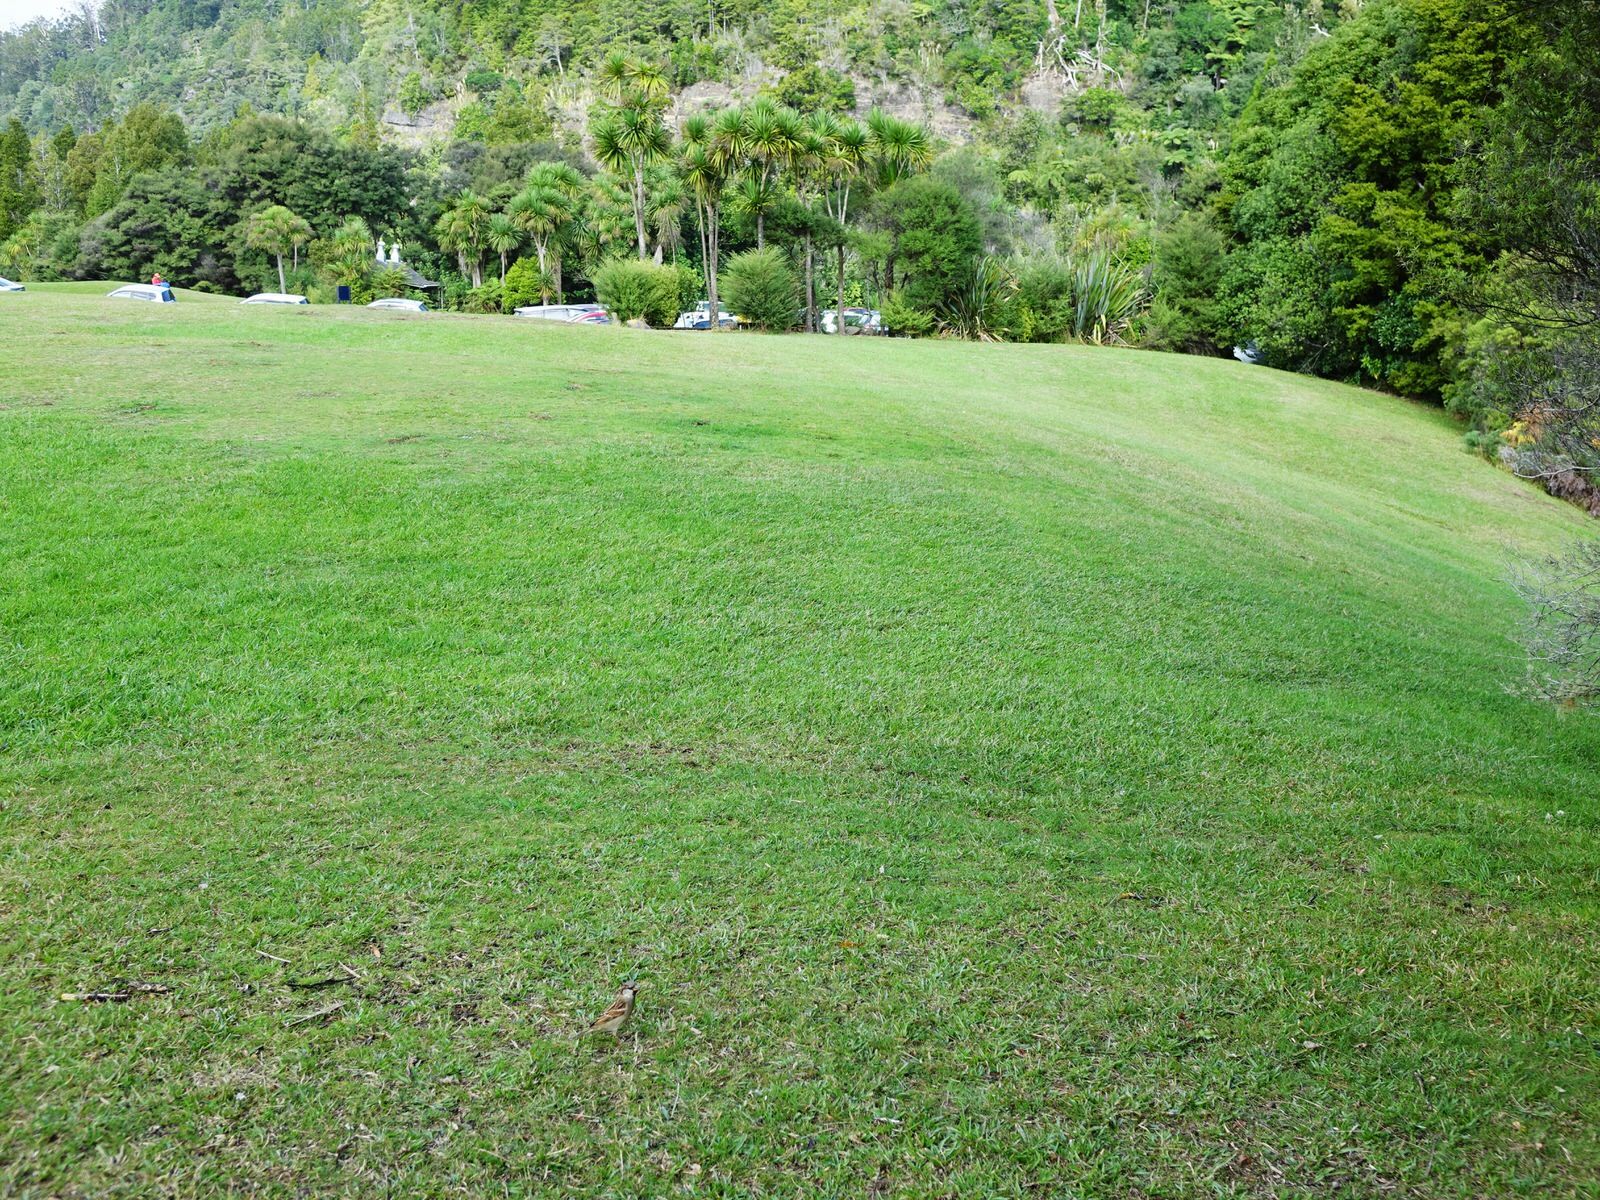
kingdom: Animalia
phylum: Chordata
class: Aves
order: Passeriformes
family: Passeridae
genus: Passer
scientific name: Passer domesticus
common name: House sparrow
